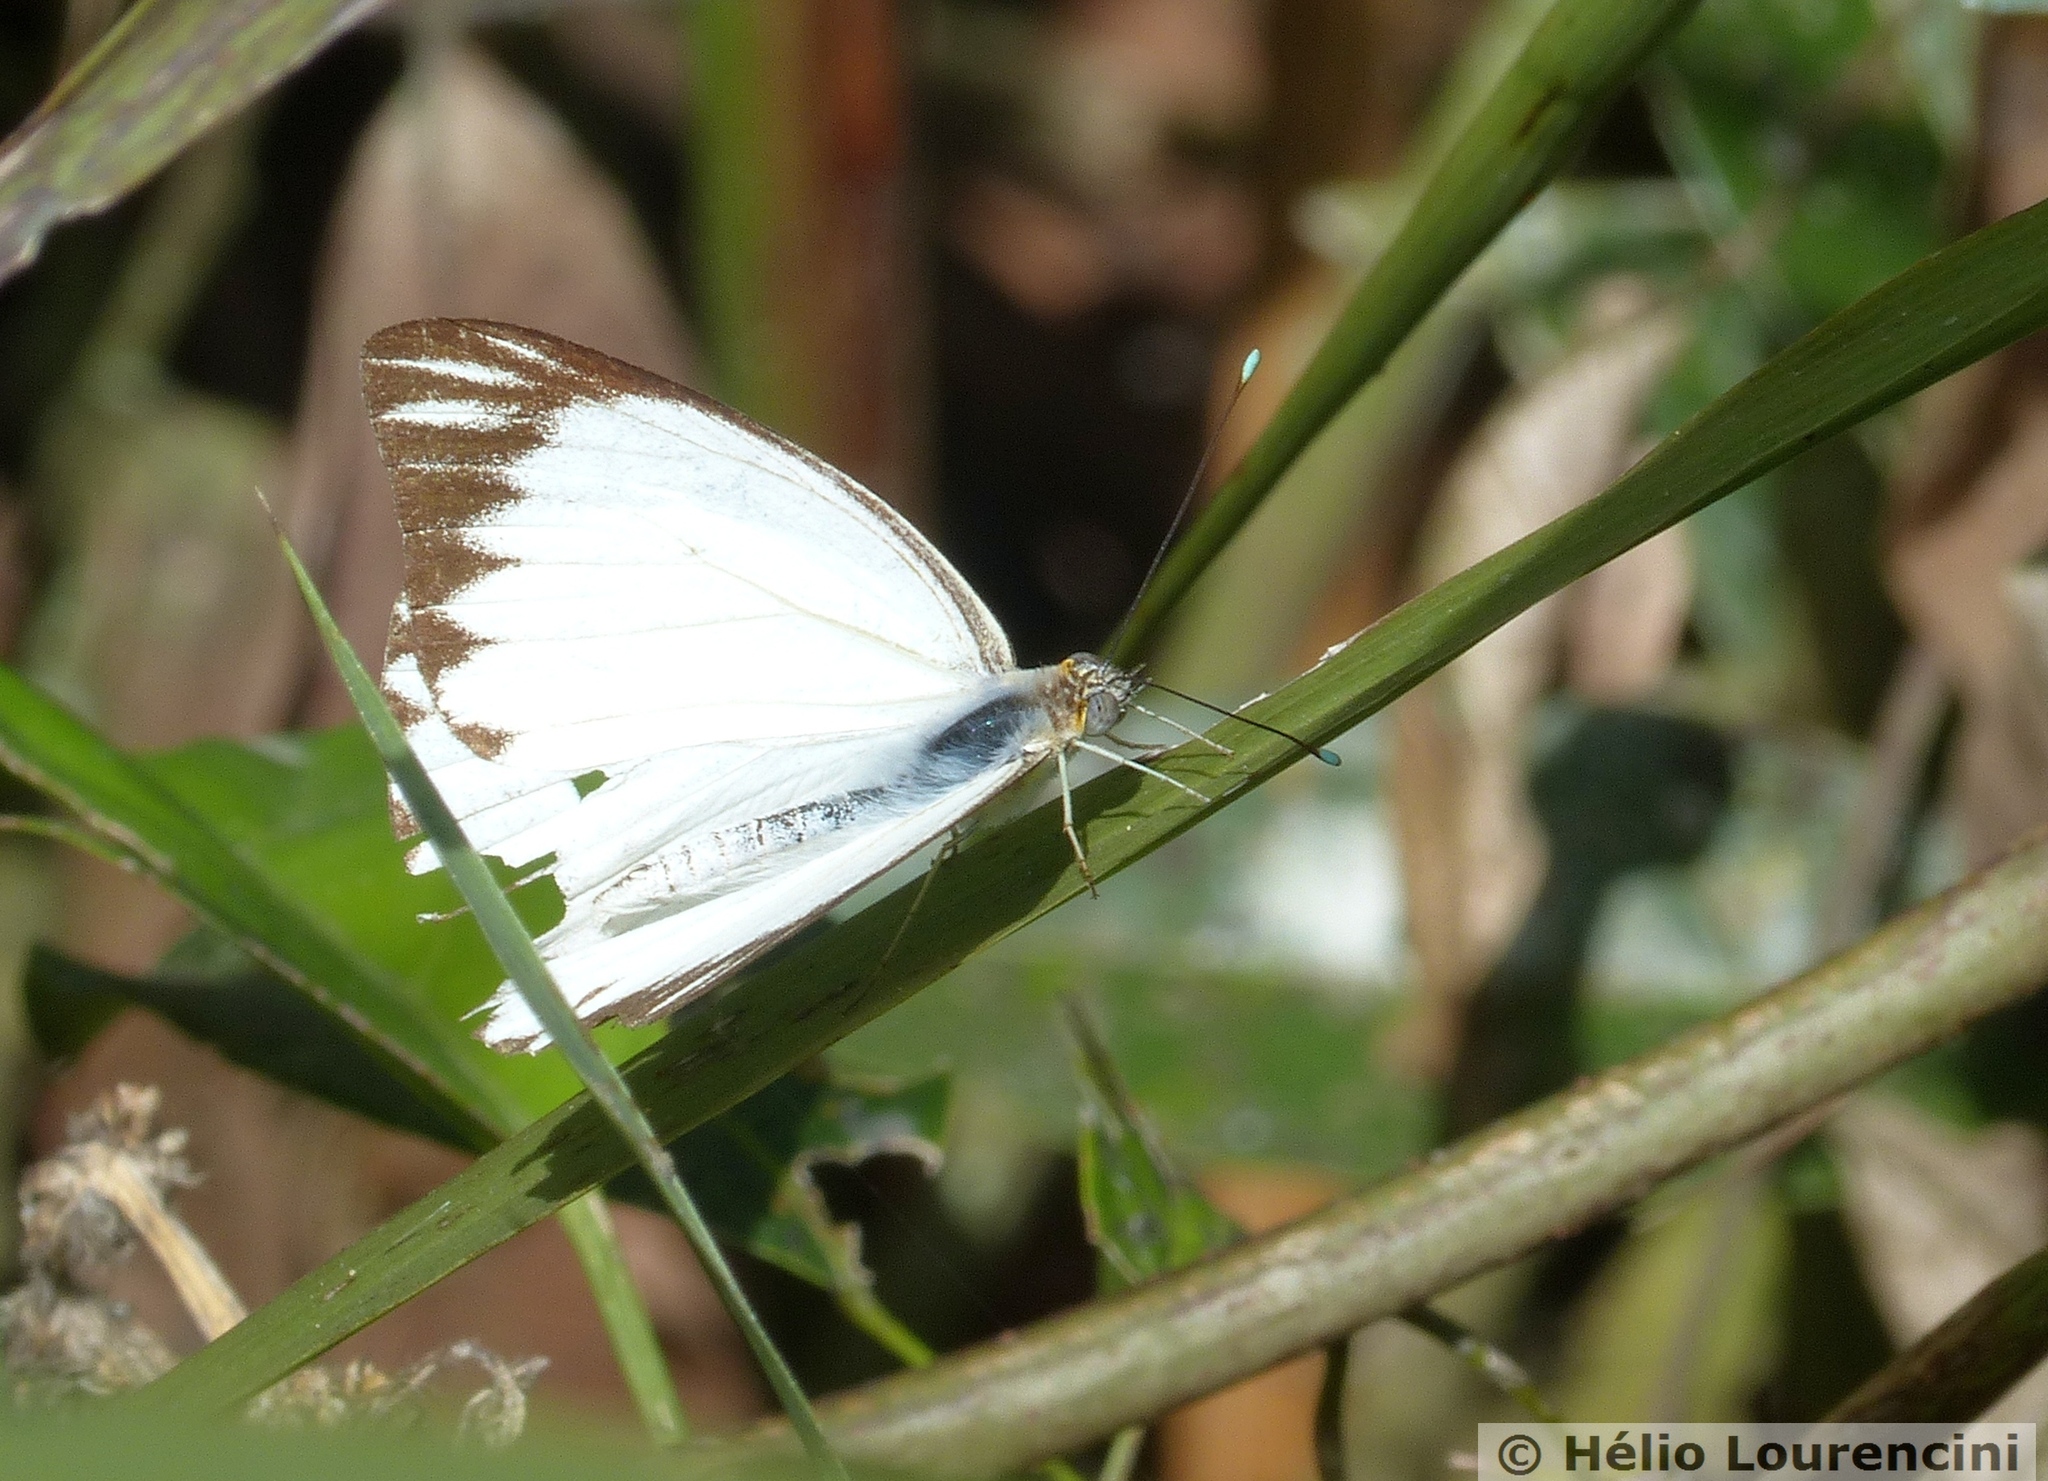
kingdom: Animalia
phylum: Arthropoda
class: Insecta
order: Lepidoptera
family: Pieridae
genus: Ascia
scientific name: Ascia monuste
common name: Great southern white
